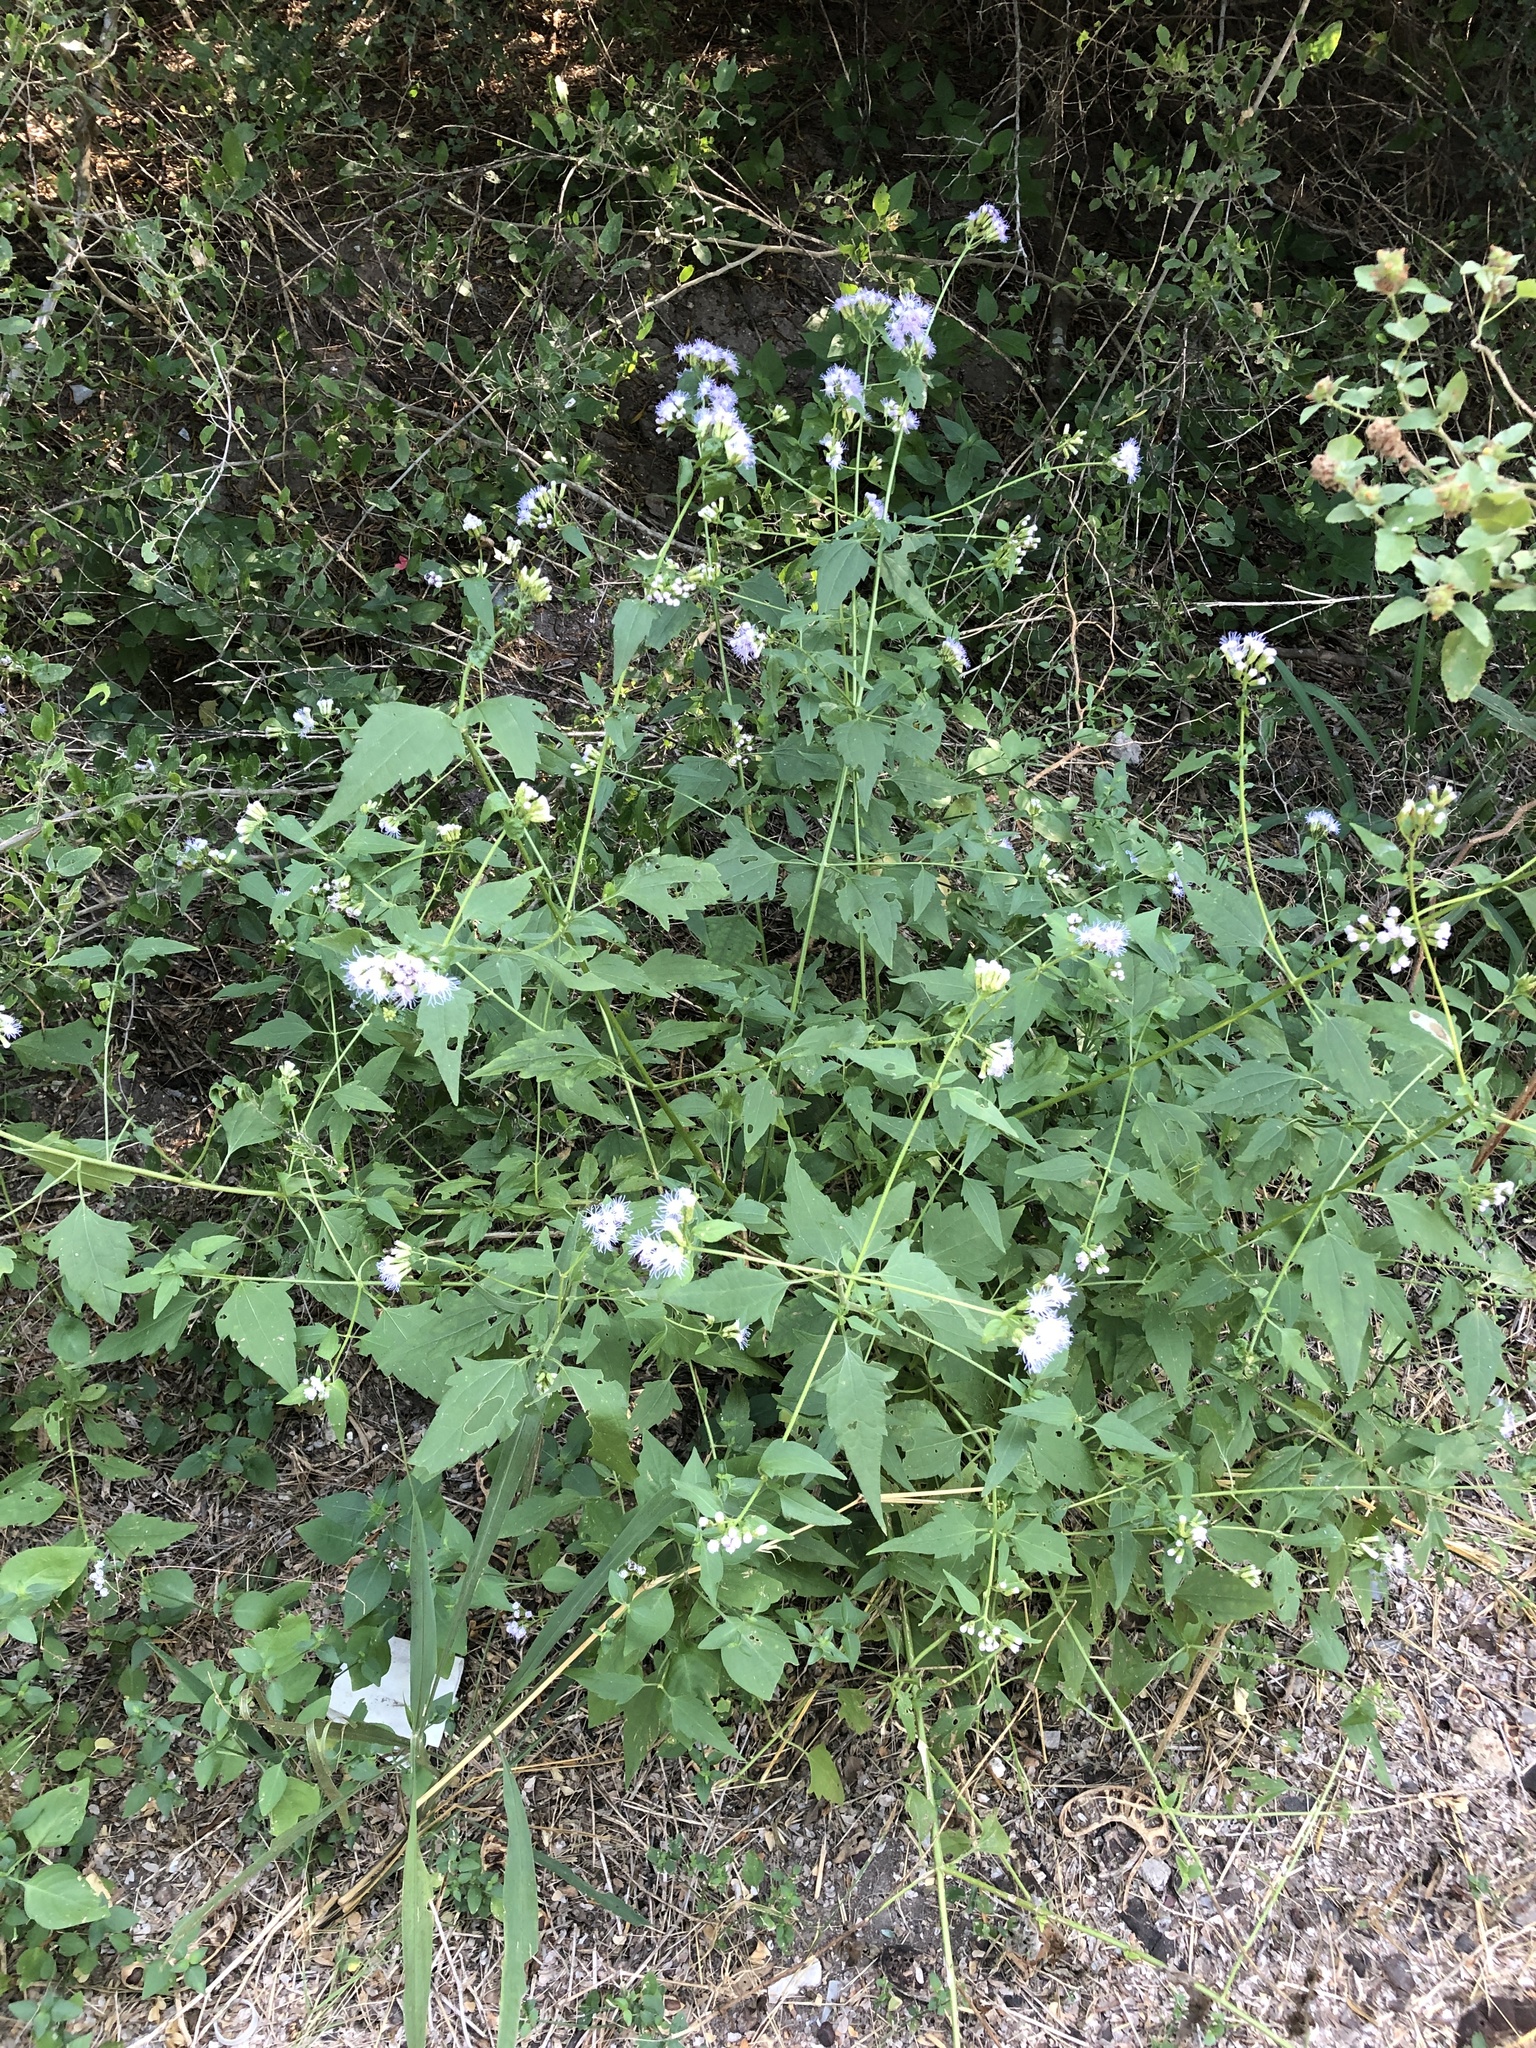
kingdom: Plantae
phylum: Tracheophyta
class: Magnoliopsida
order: Asterales
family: Asteraceae
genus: Chromolaena
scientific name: Chromolaena odorata
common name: Siamweed
